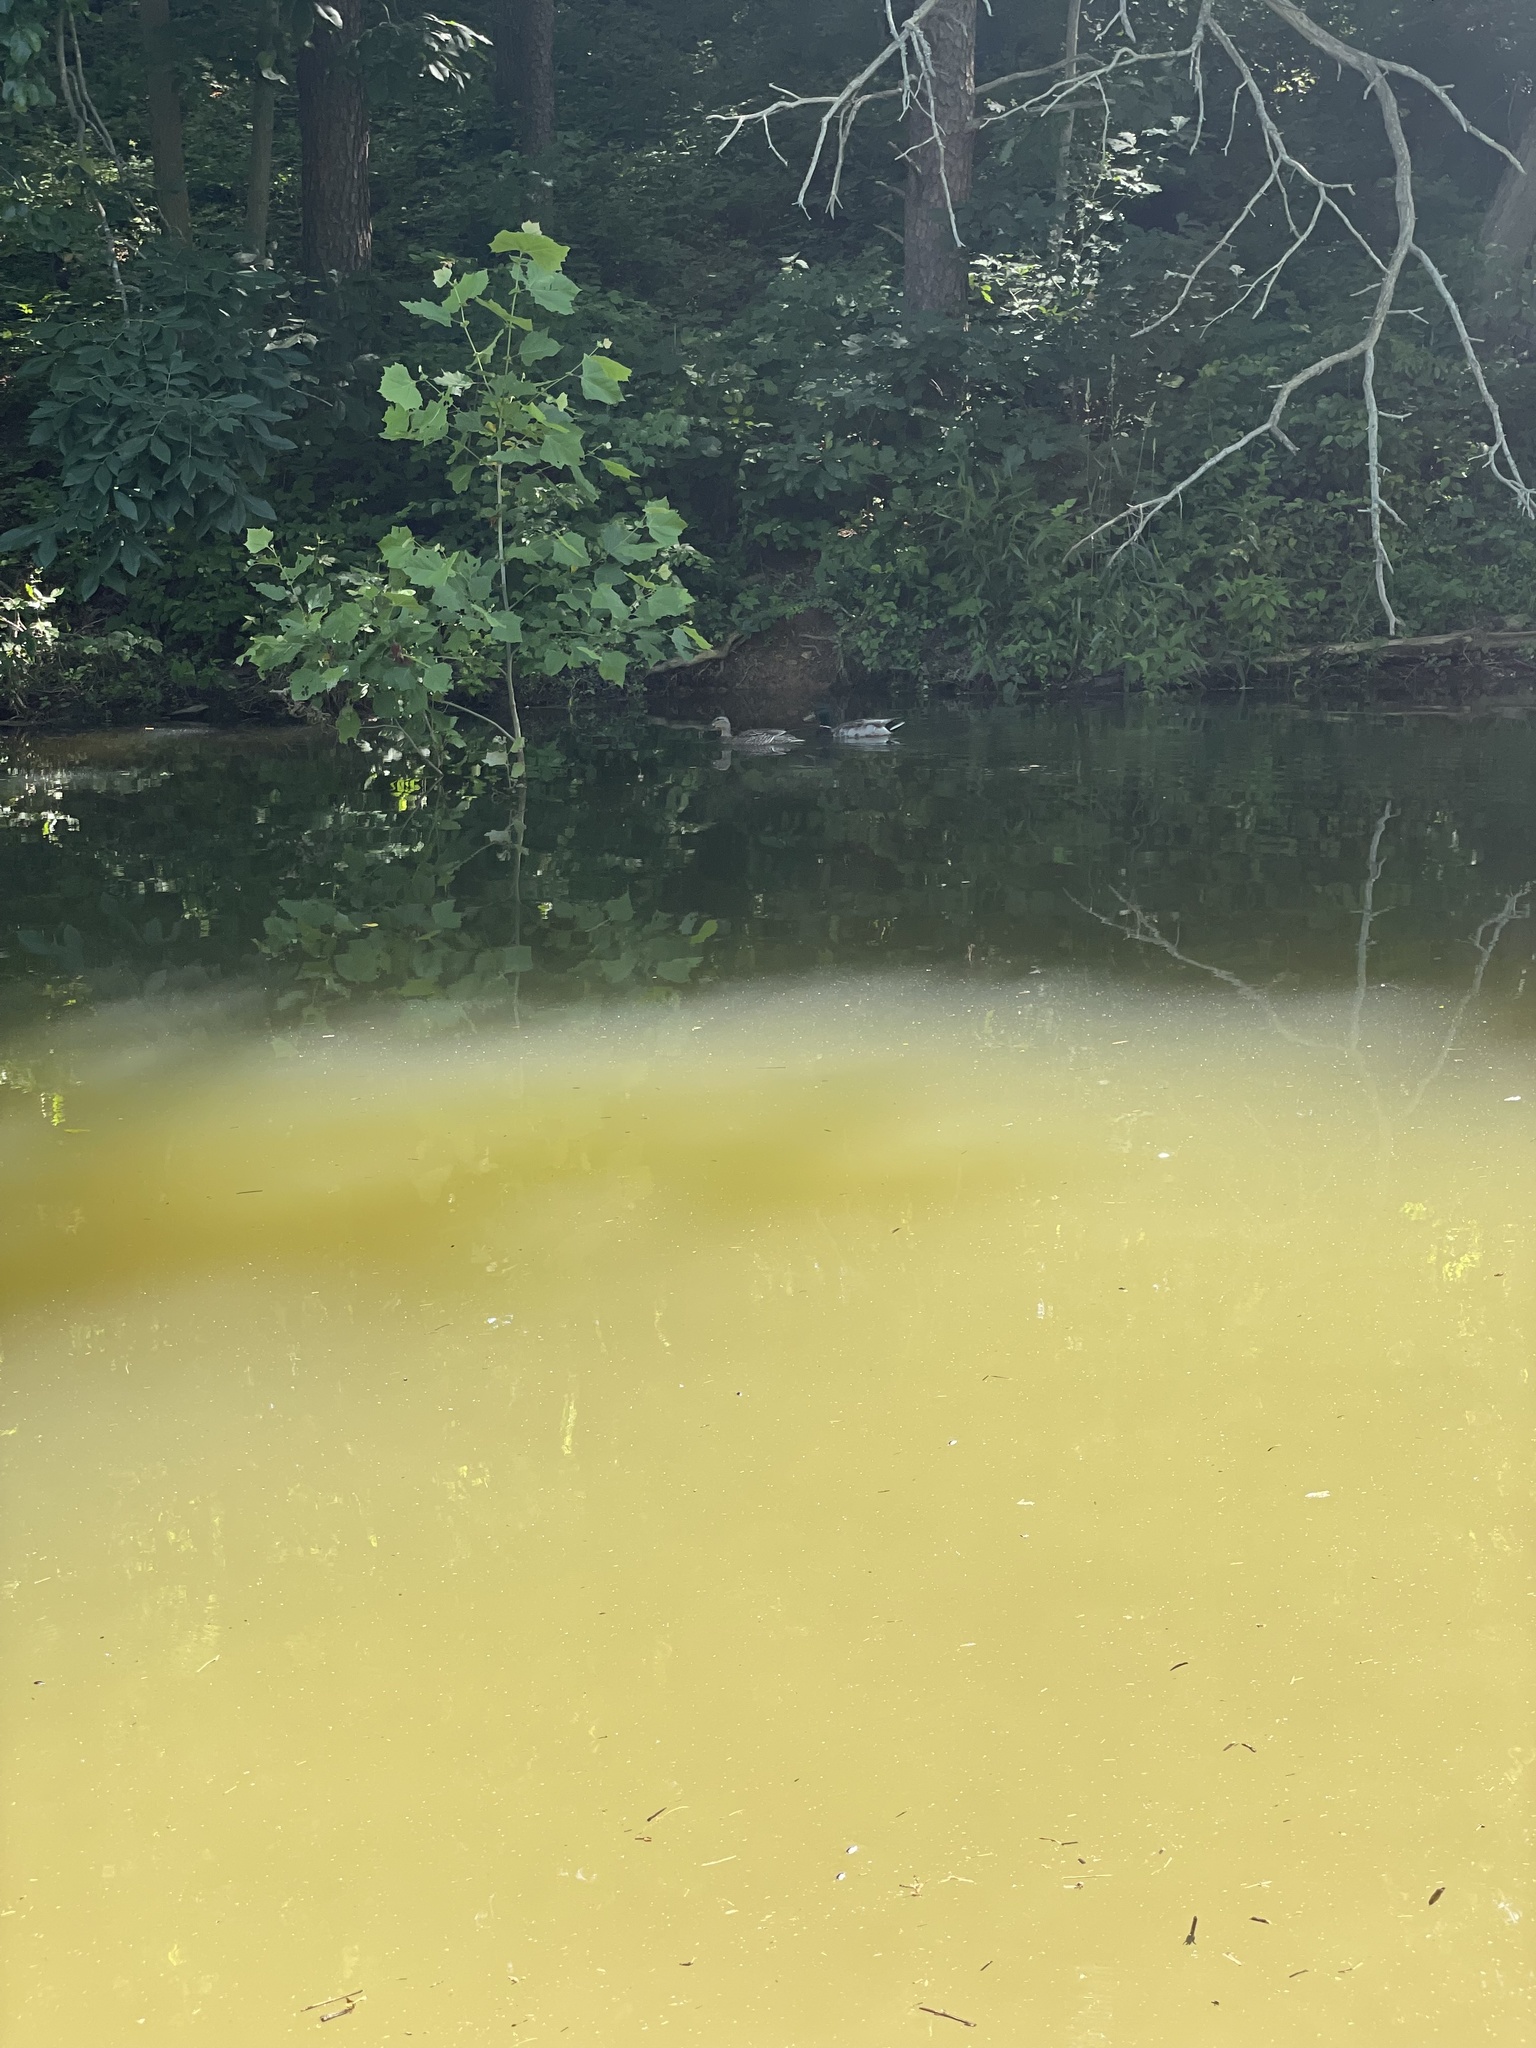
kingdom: Animalia
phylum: Chordata
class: Aves
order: Anseriformes
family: Anatidae
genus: Anas
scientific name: Anas platyrhynchos
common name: Mallard
